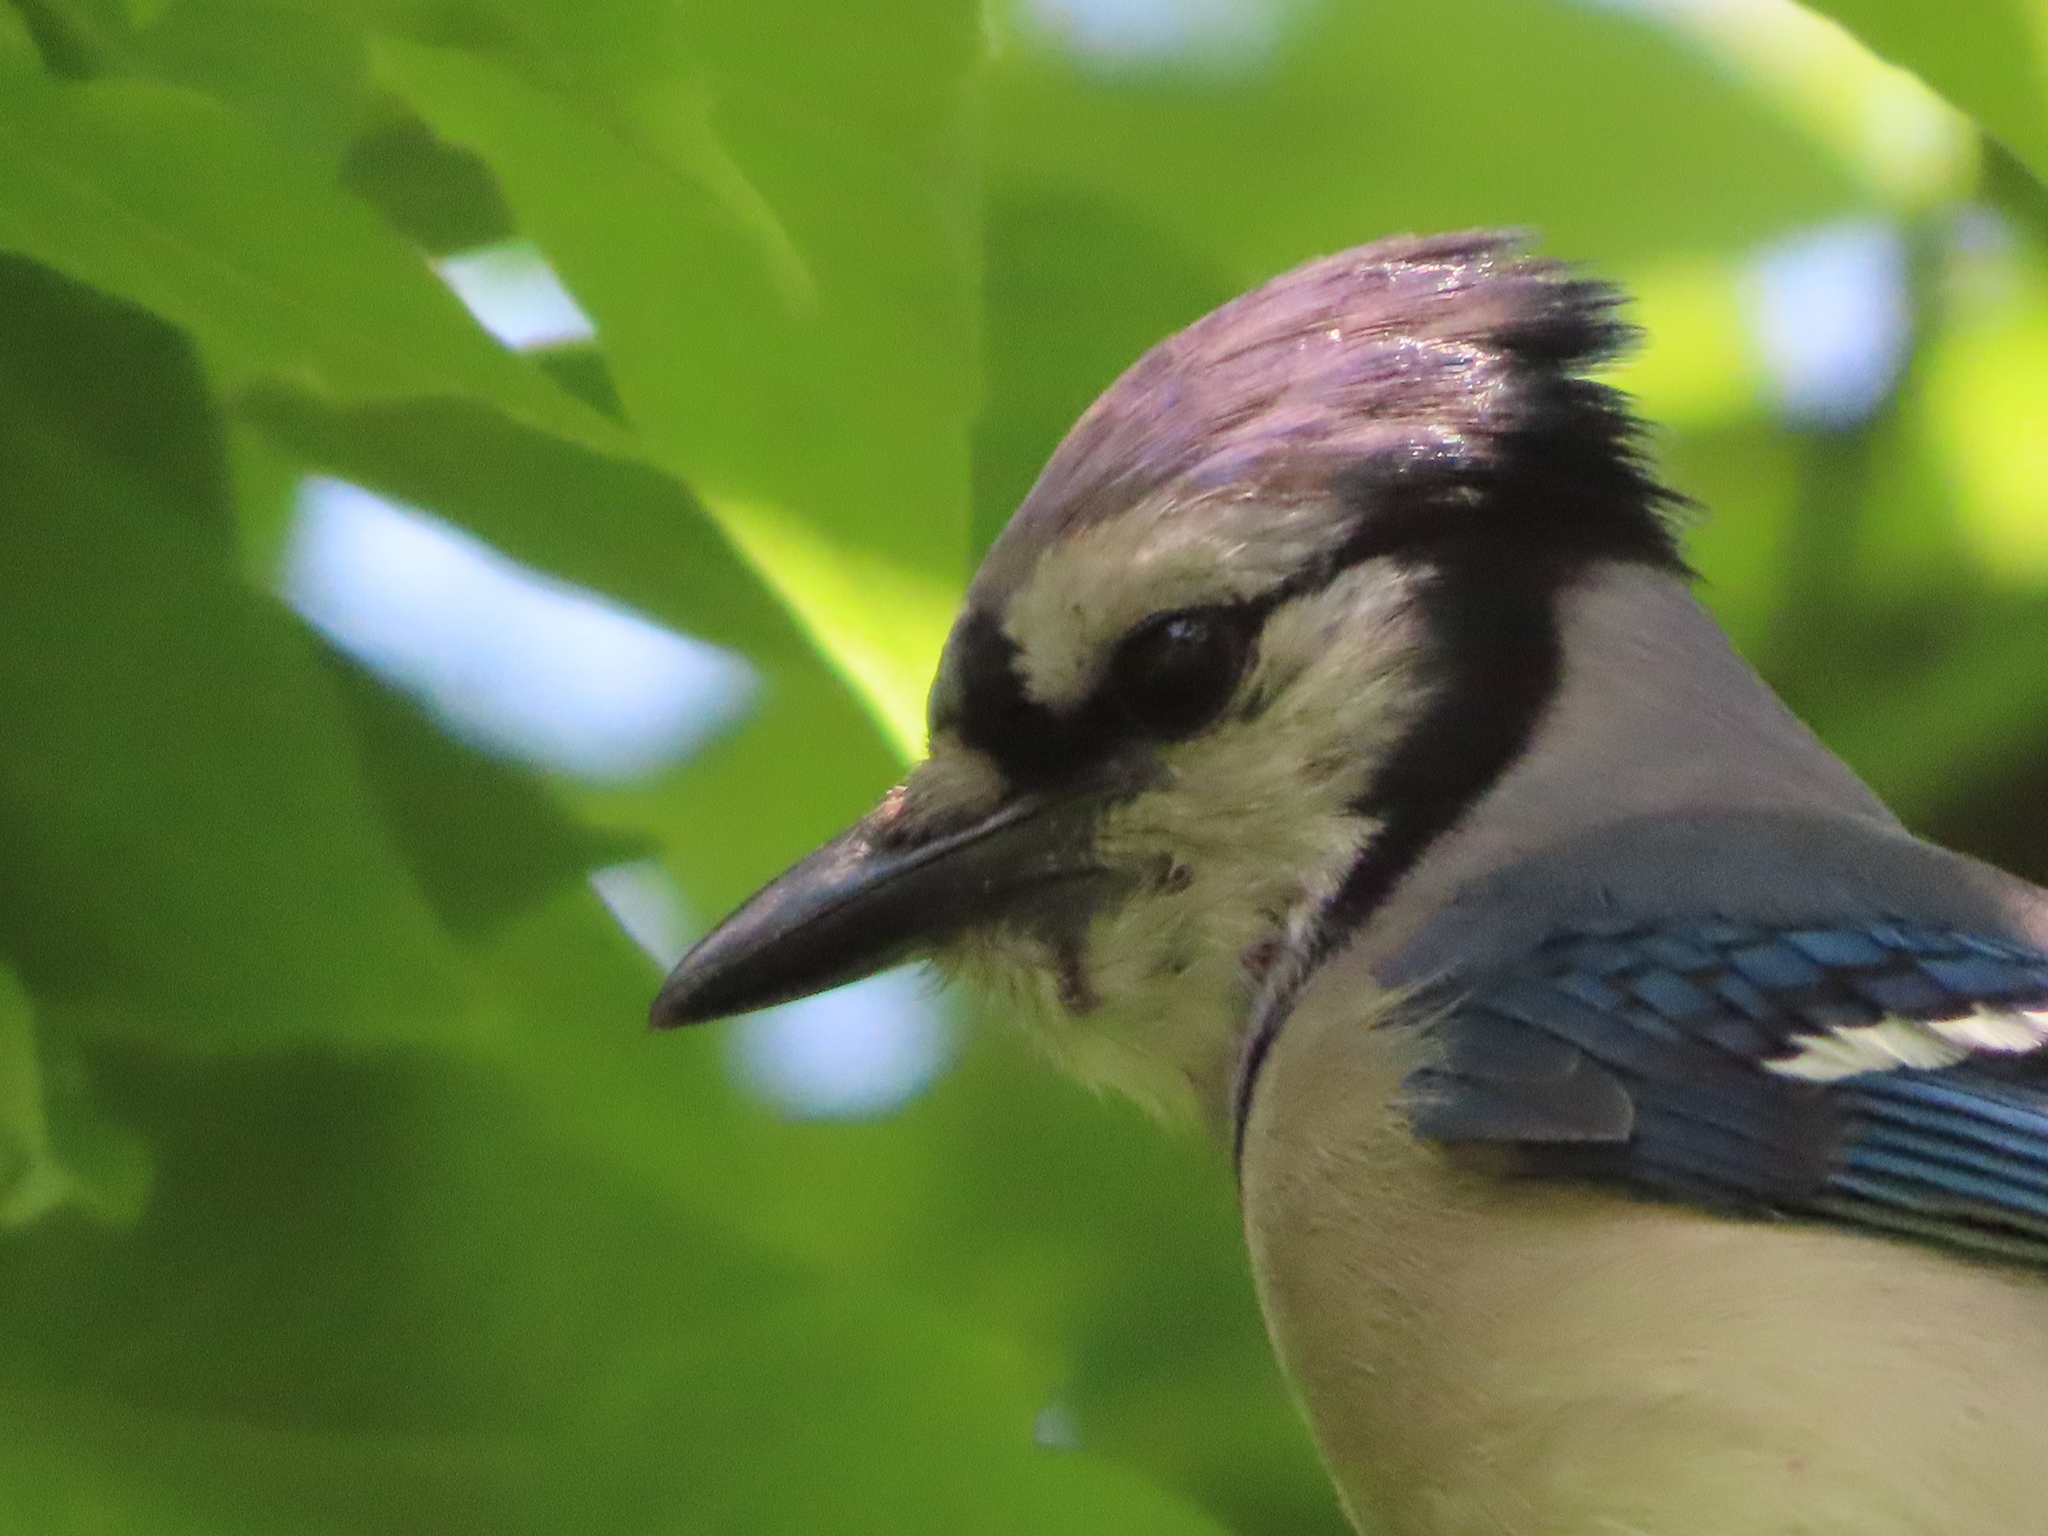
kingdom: Animalia
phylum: Chordata
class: Aves
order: Passeriformes
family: Corvidae
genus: Cyanocitta
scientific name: Cyanocitta cristata
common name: Blue jay
